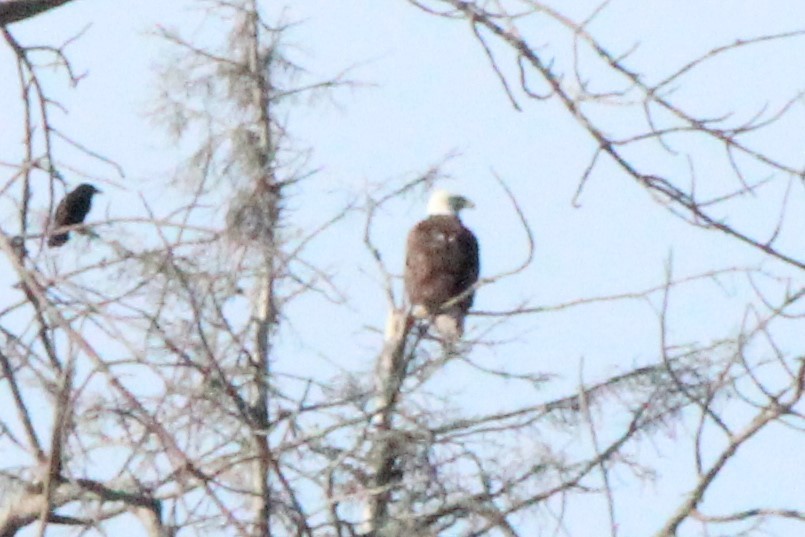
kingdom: Animalia
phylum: Chordata
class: Aves
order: Accipitriformes
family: Accipitridae
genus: Haliaeetus
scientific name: Haliaeetus leucocephalus
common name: Bald eagle
